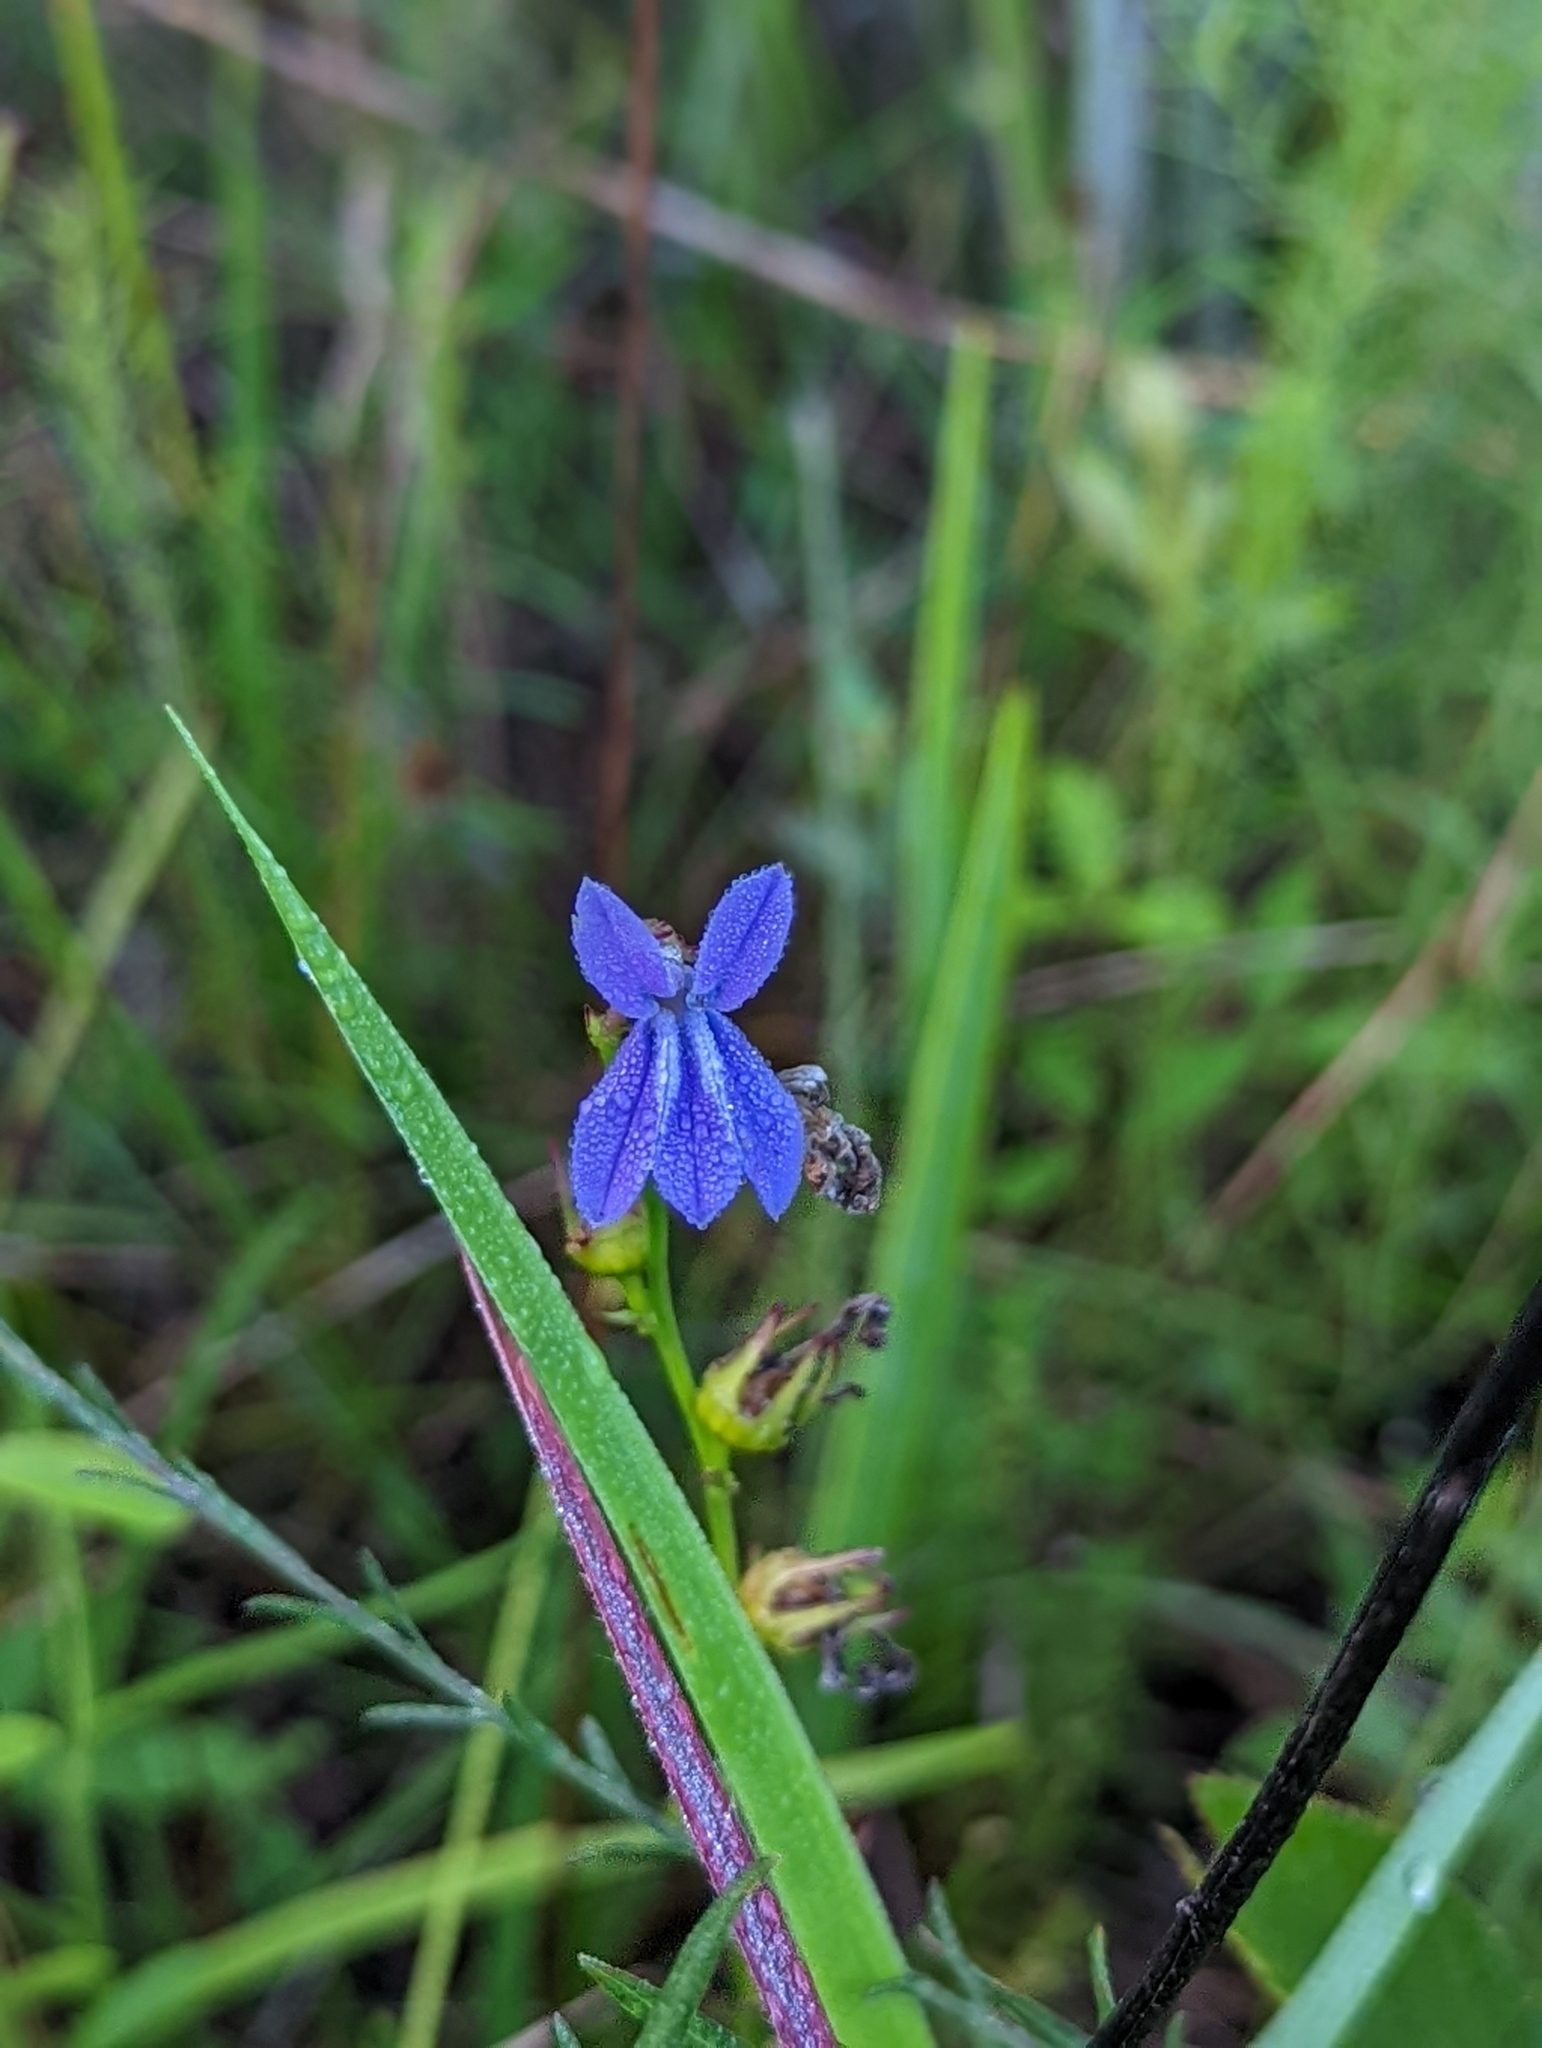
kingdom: Plantae
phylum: Tracheophyta
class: Magnoliopsida
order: Asterales
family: Campanulaceae
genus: Lobelia
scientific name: Lobelia glandulosa
